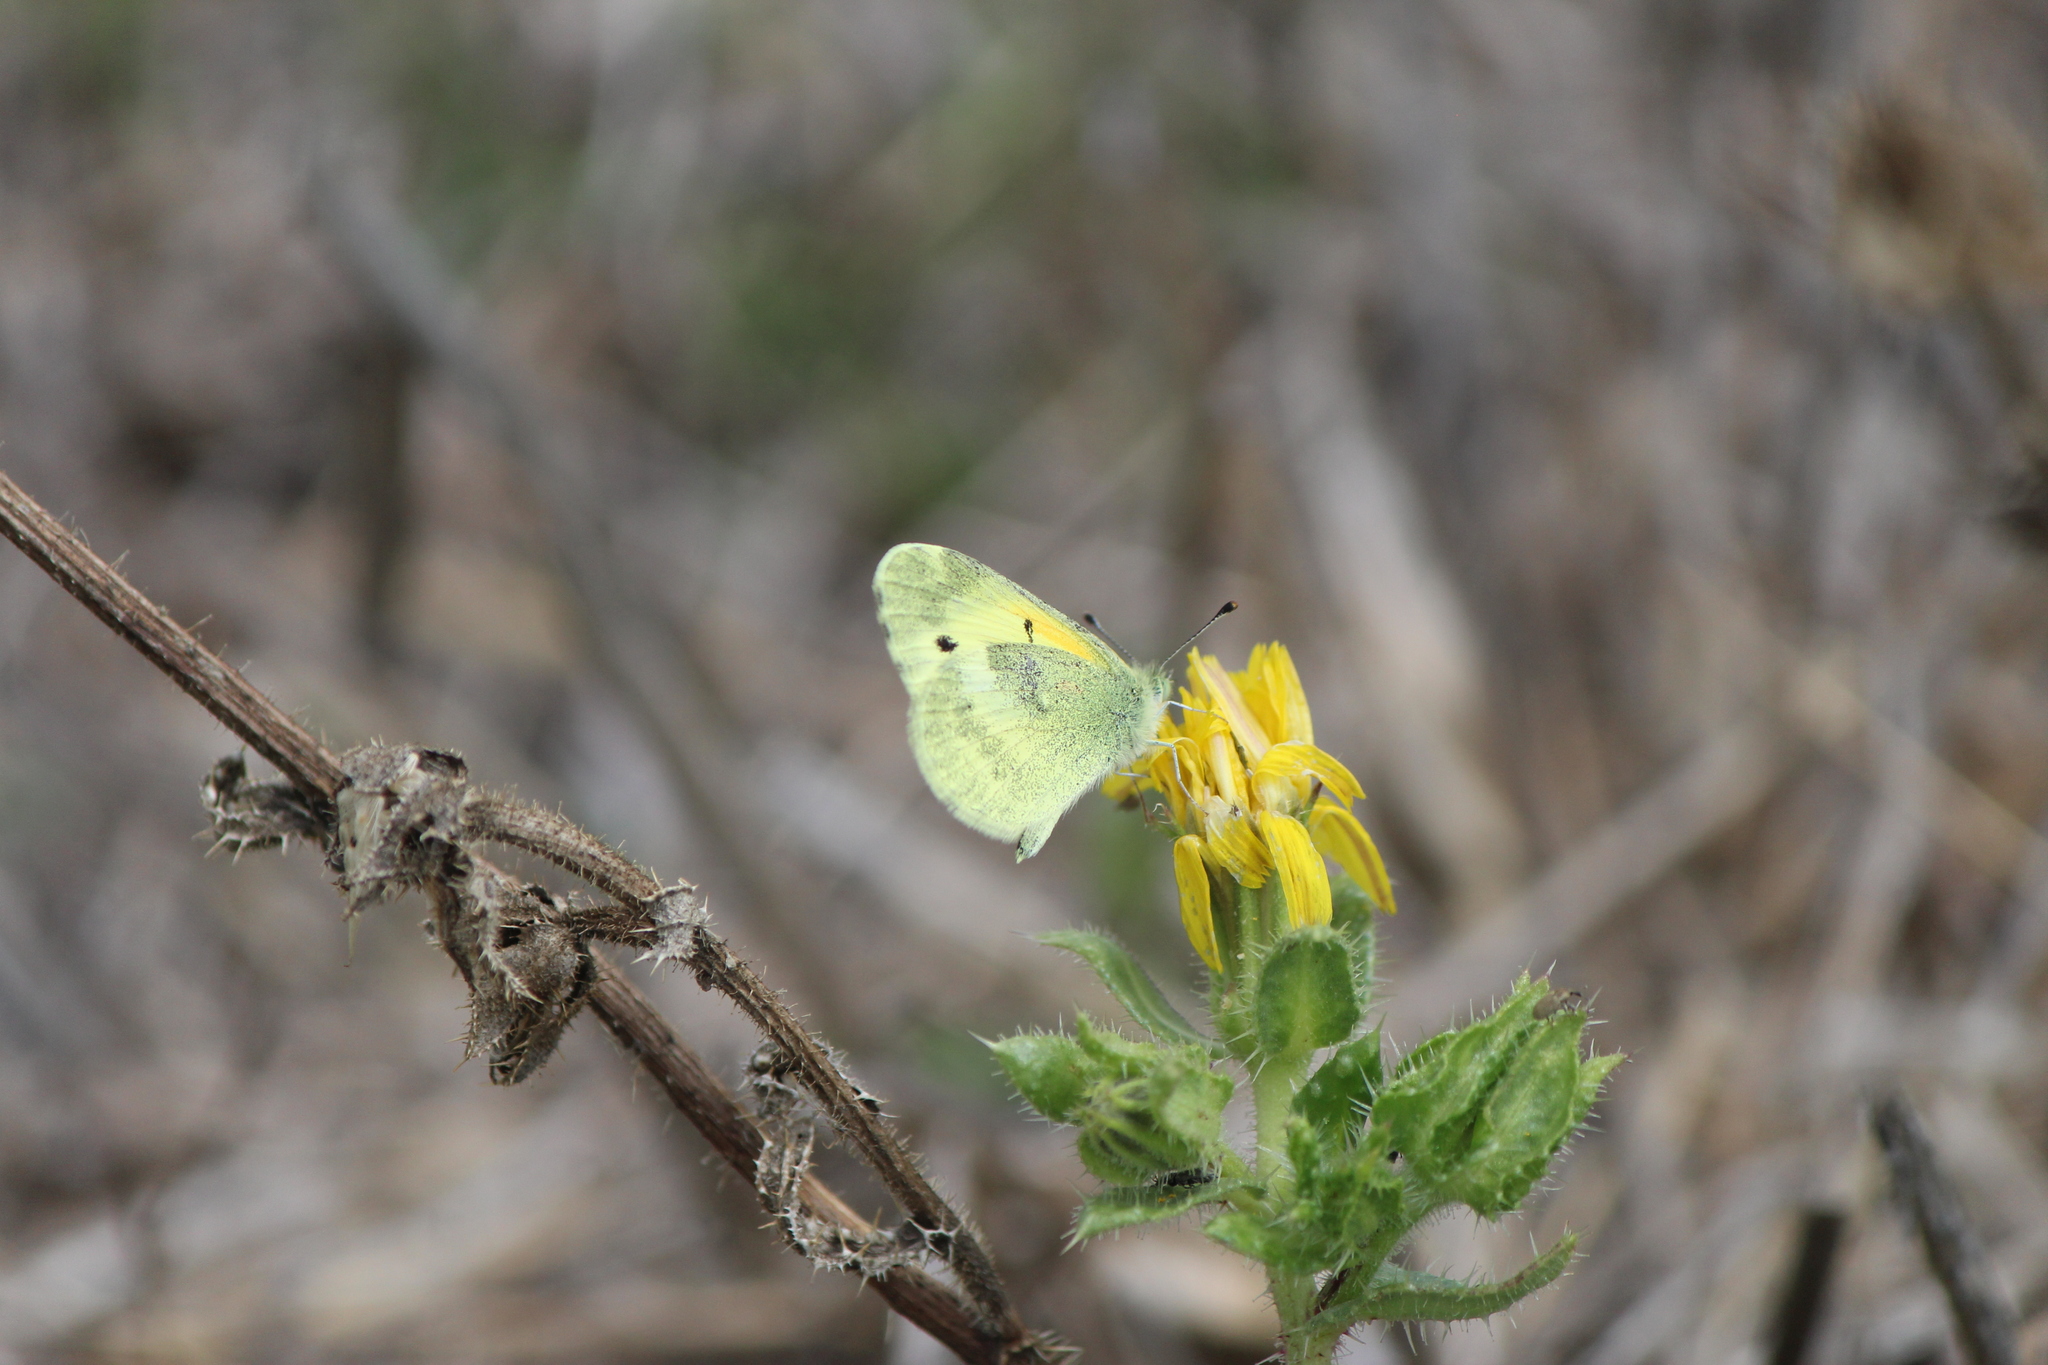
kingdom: Animalia
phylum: Arthropoda
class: Insecta
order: Lepidoptera
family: Pieridae
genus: Nathalis
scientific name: Nathalis iole
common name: Dainty sulphur
